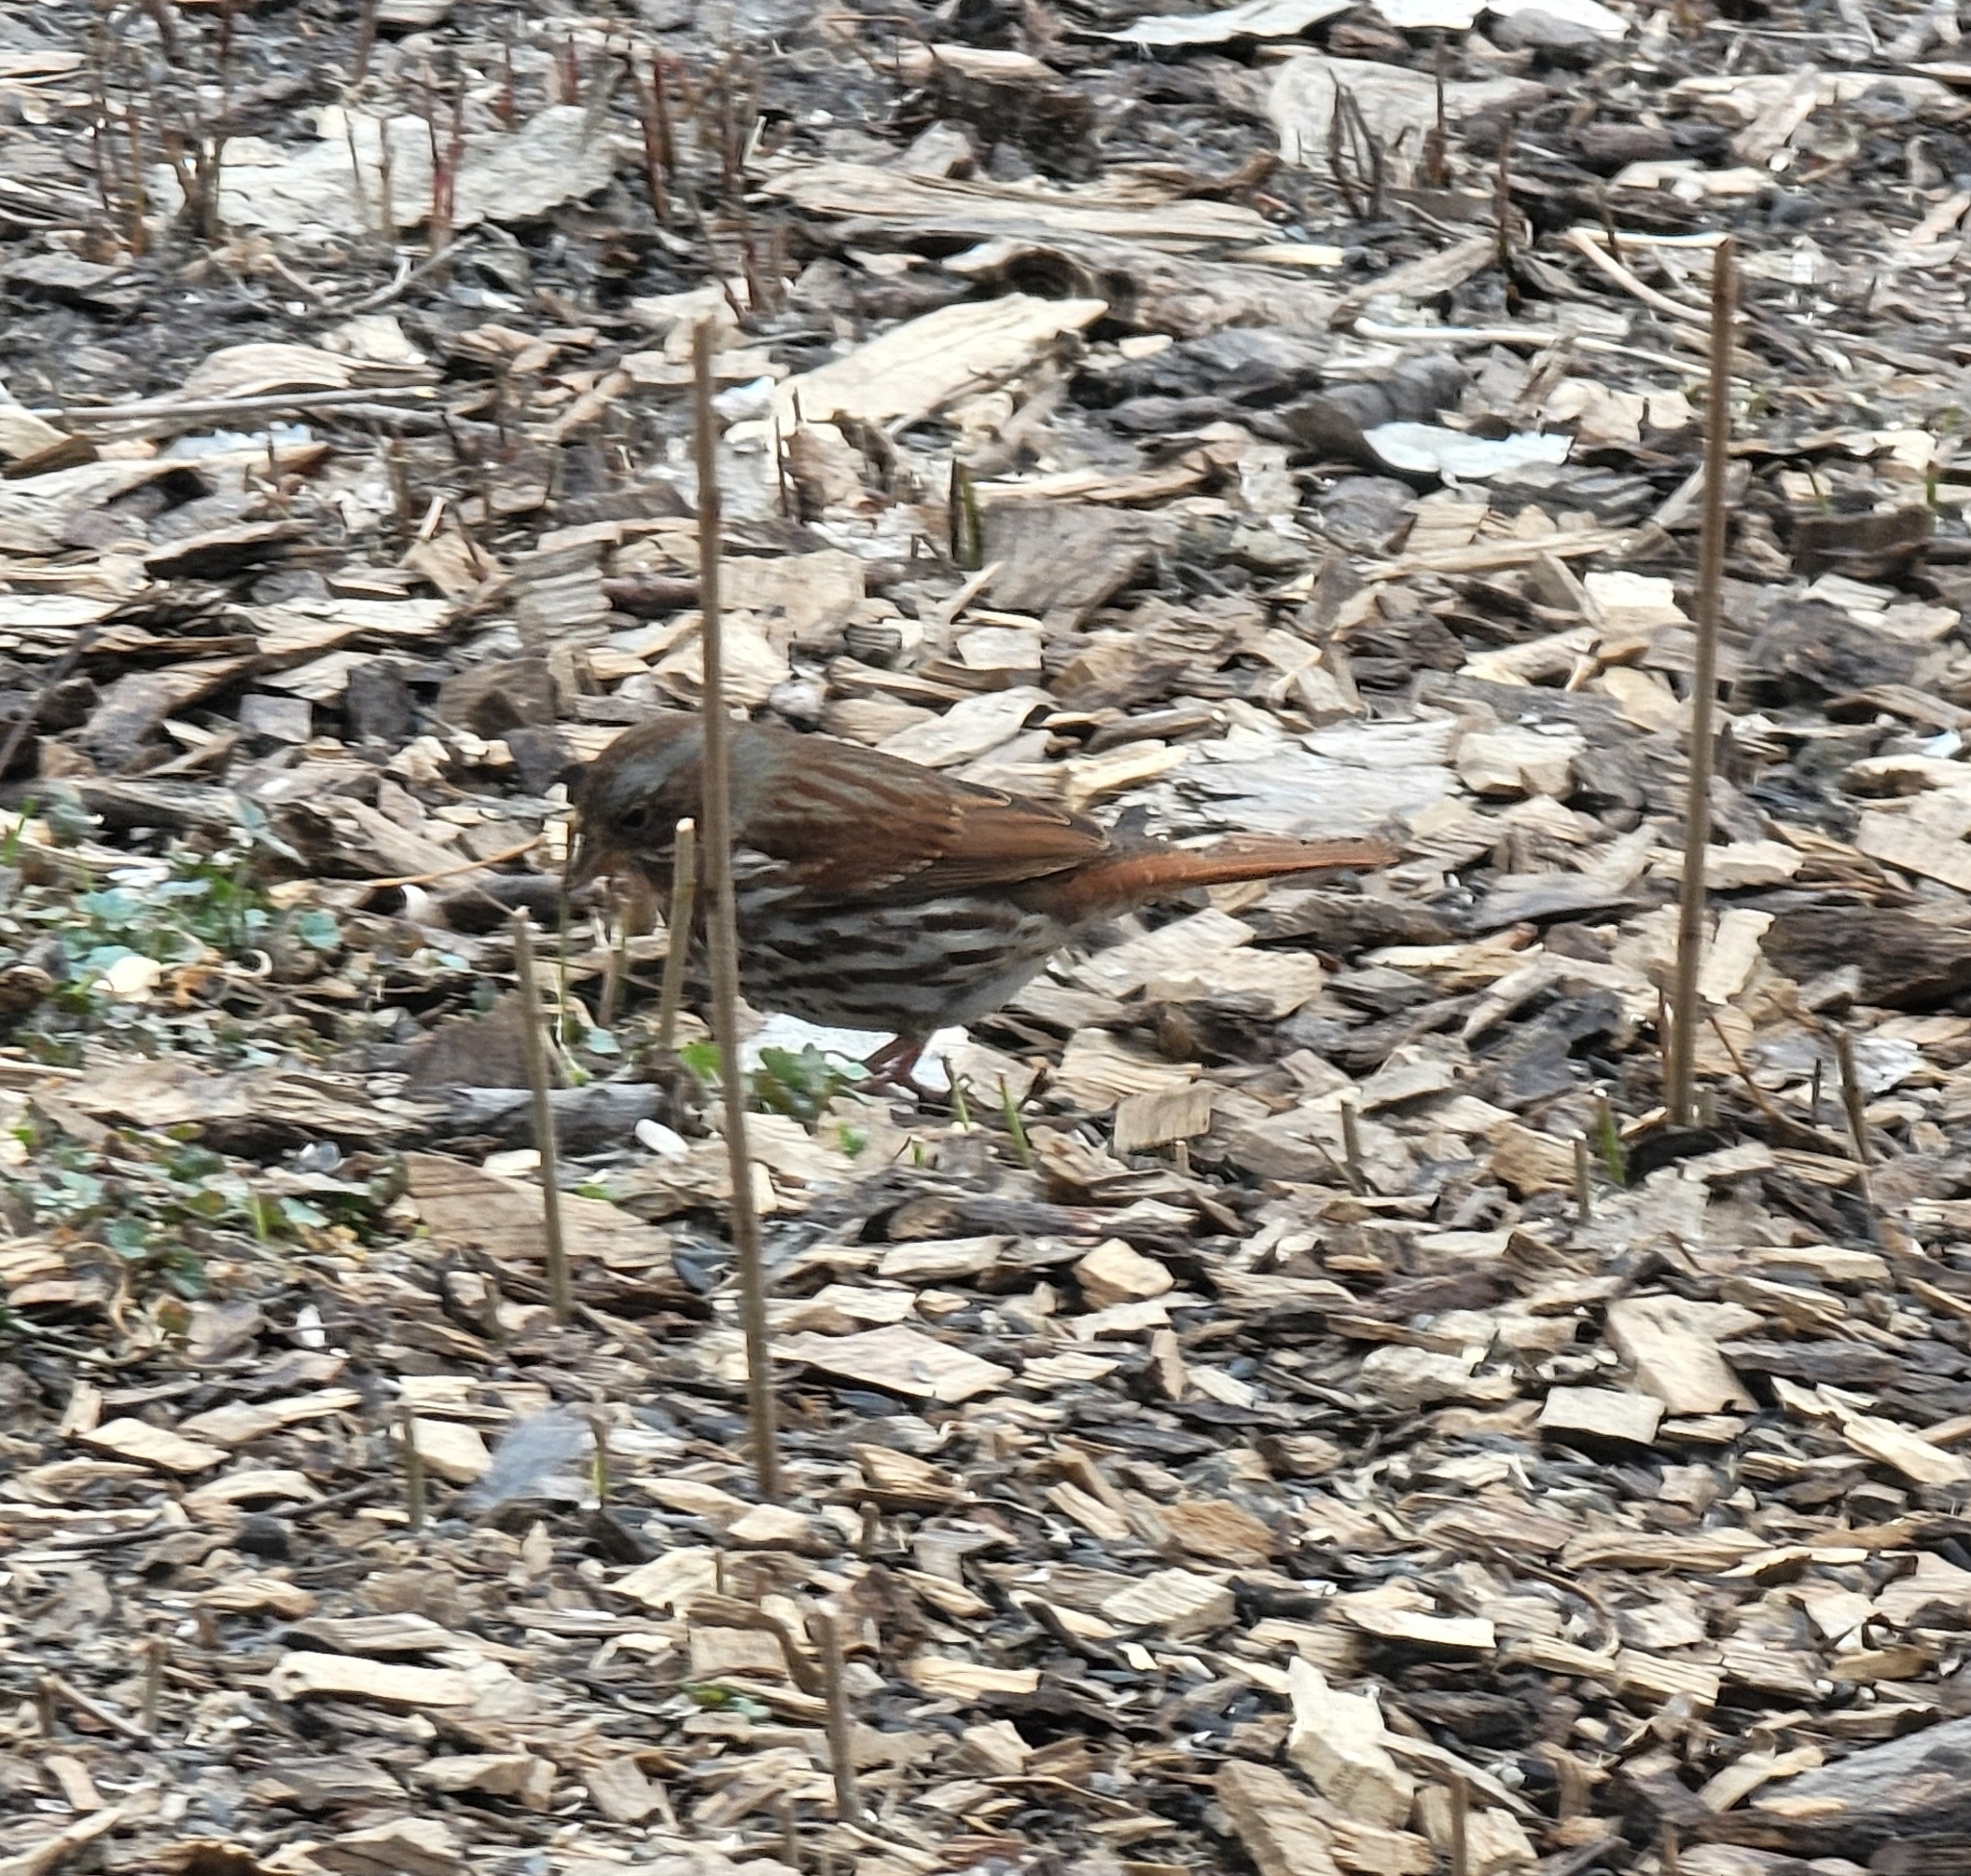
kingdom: Animalia
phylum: Chordata
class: Aves
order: Passeriformes
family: Passerellidae
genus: Passerella
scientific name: Passerella iliaca
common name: Fox sparrow
